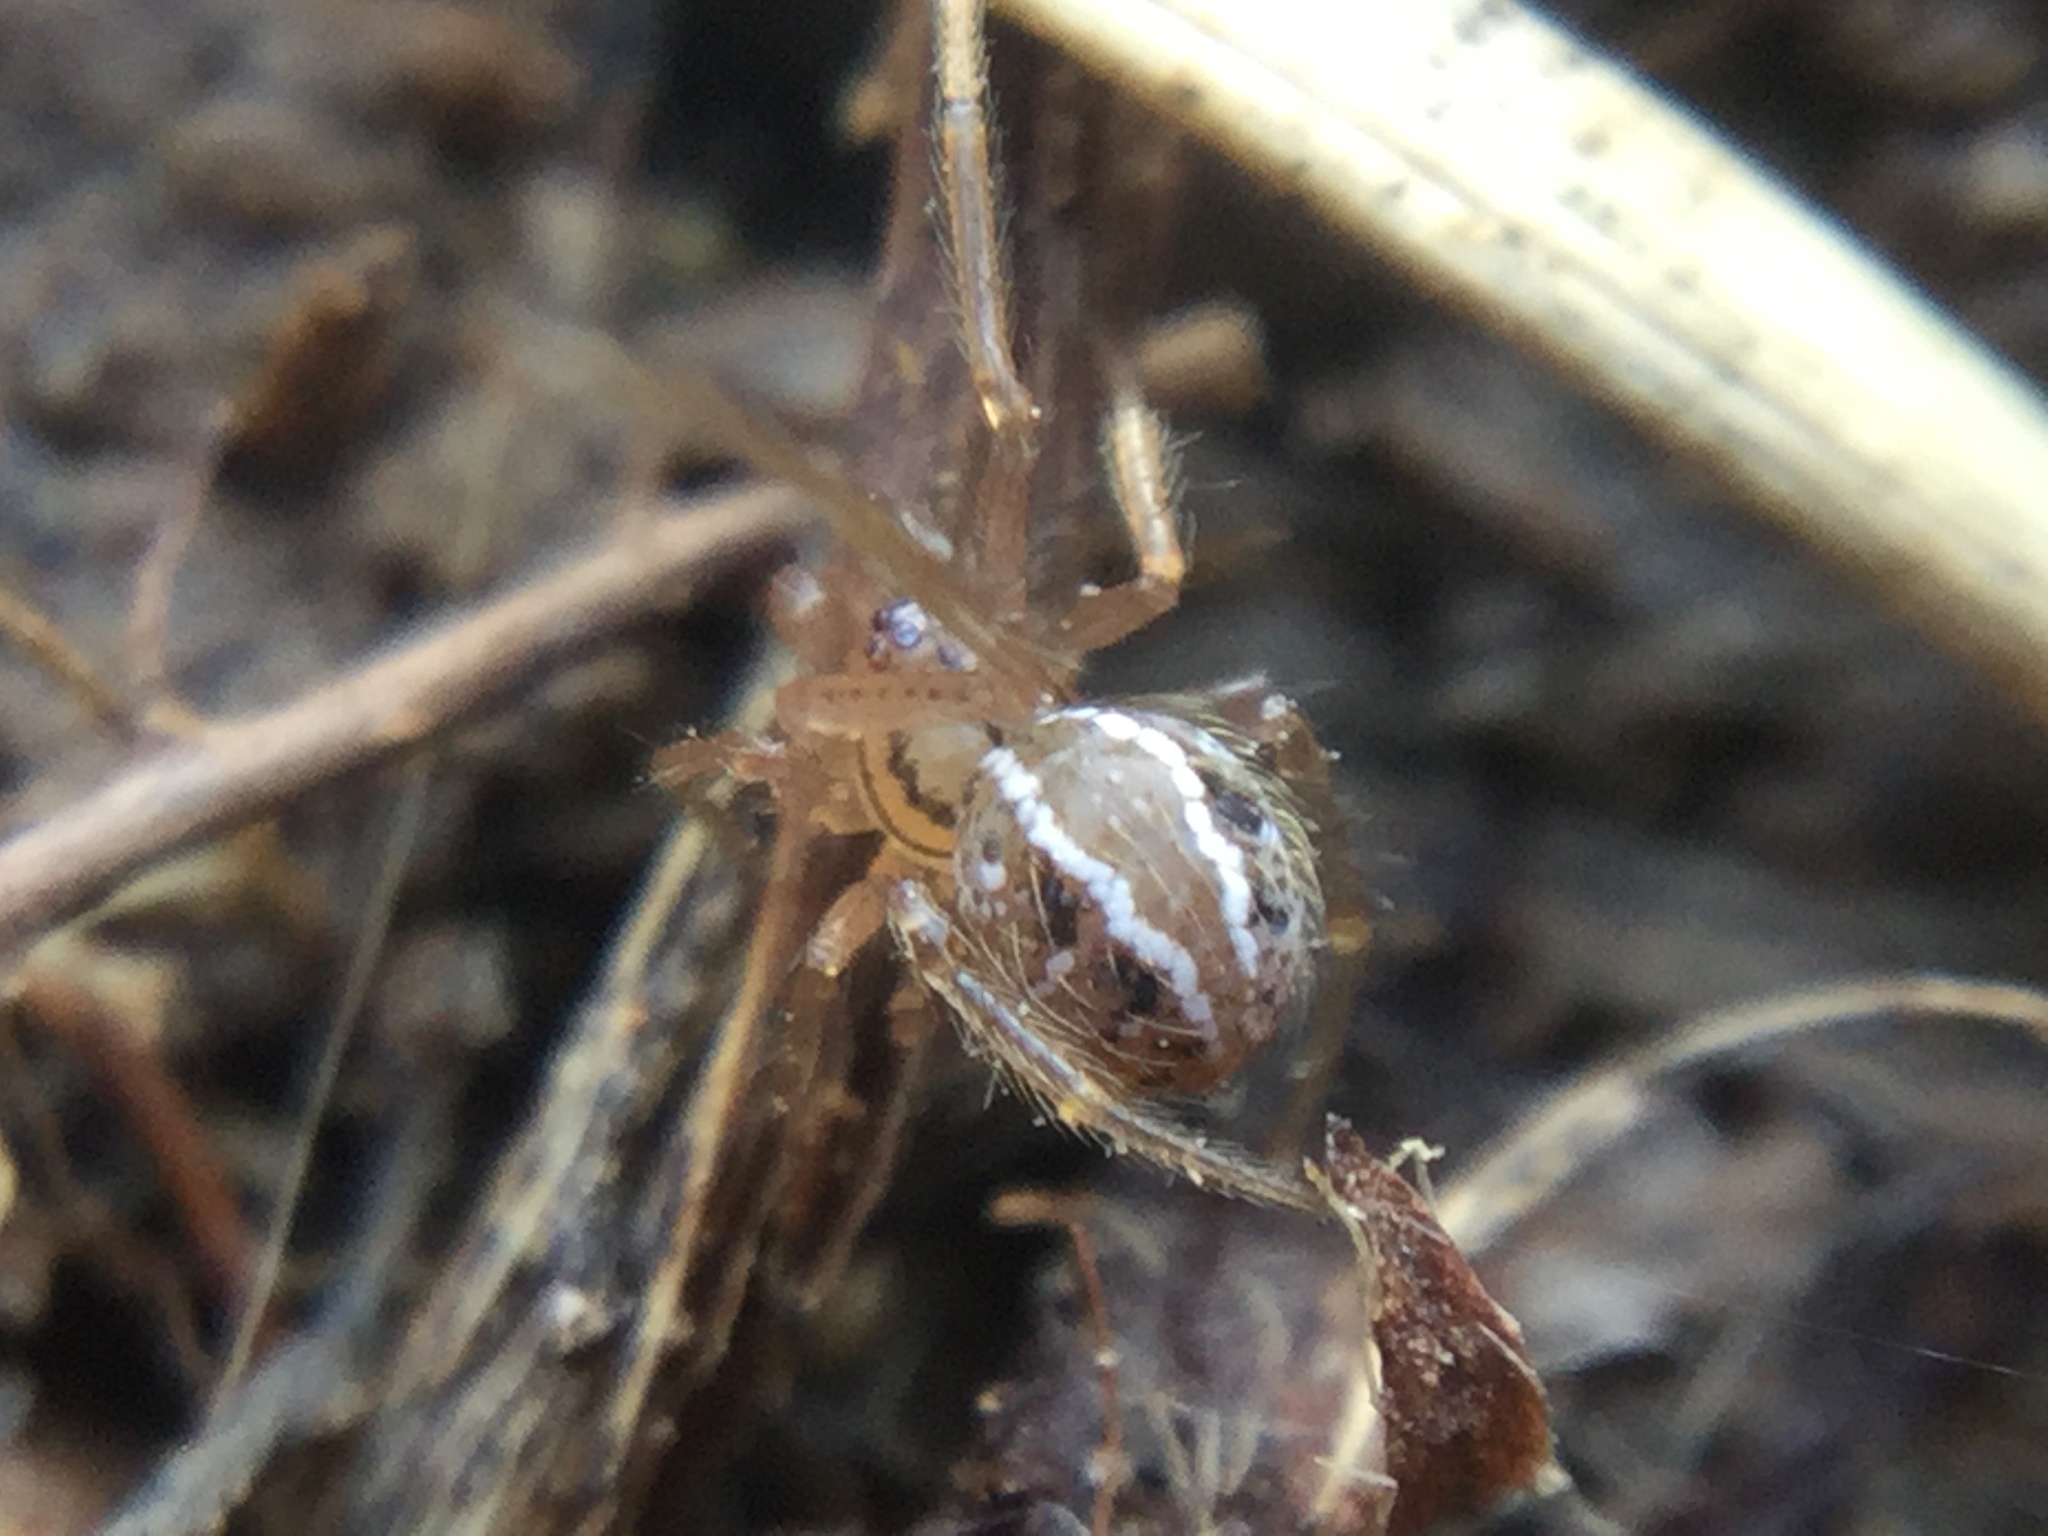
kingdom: Animalia
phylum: Arthropoda
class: Arachnida
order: Araneae
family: Theridiidae
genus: Theridion
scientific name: Theridion neshamini
